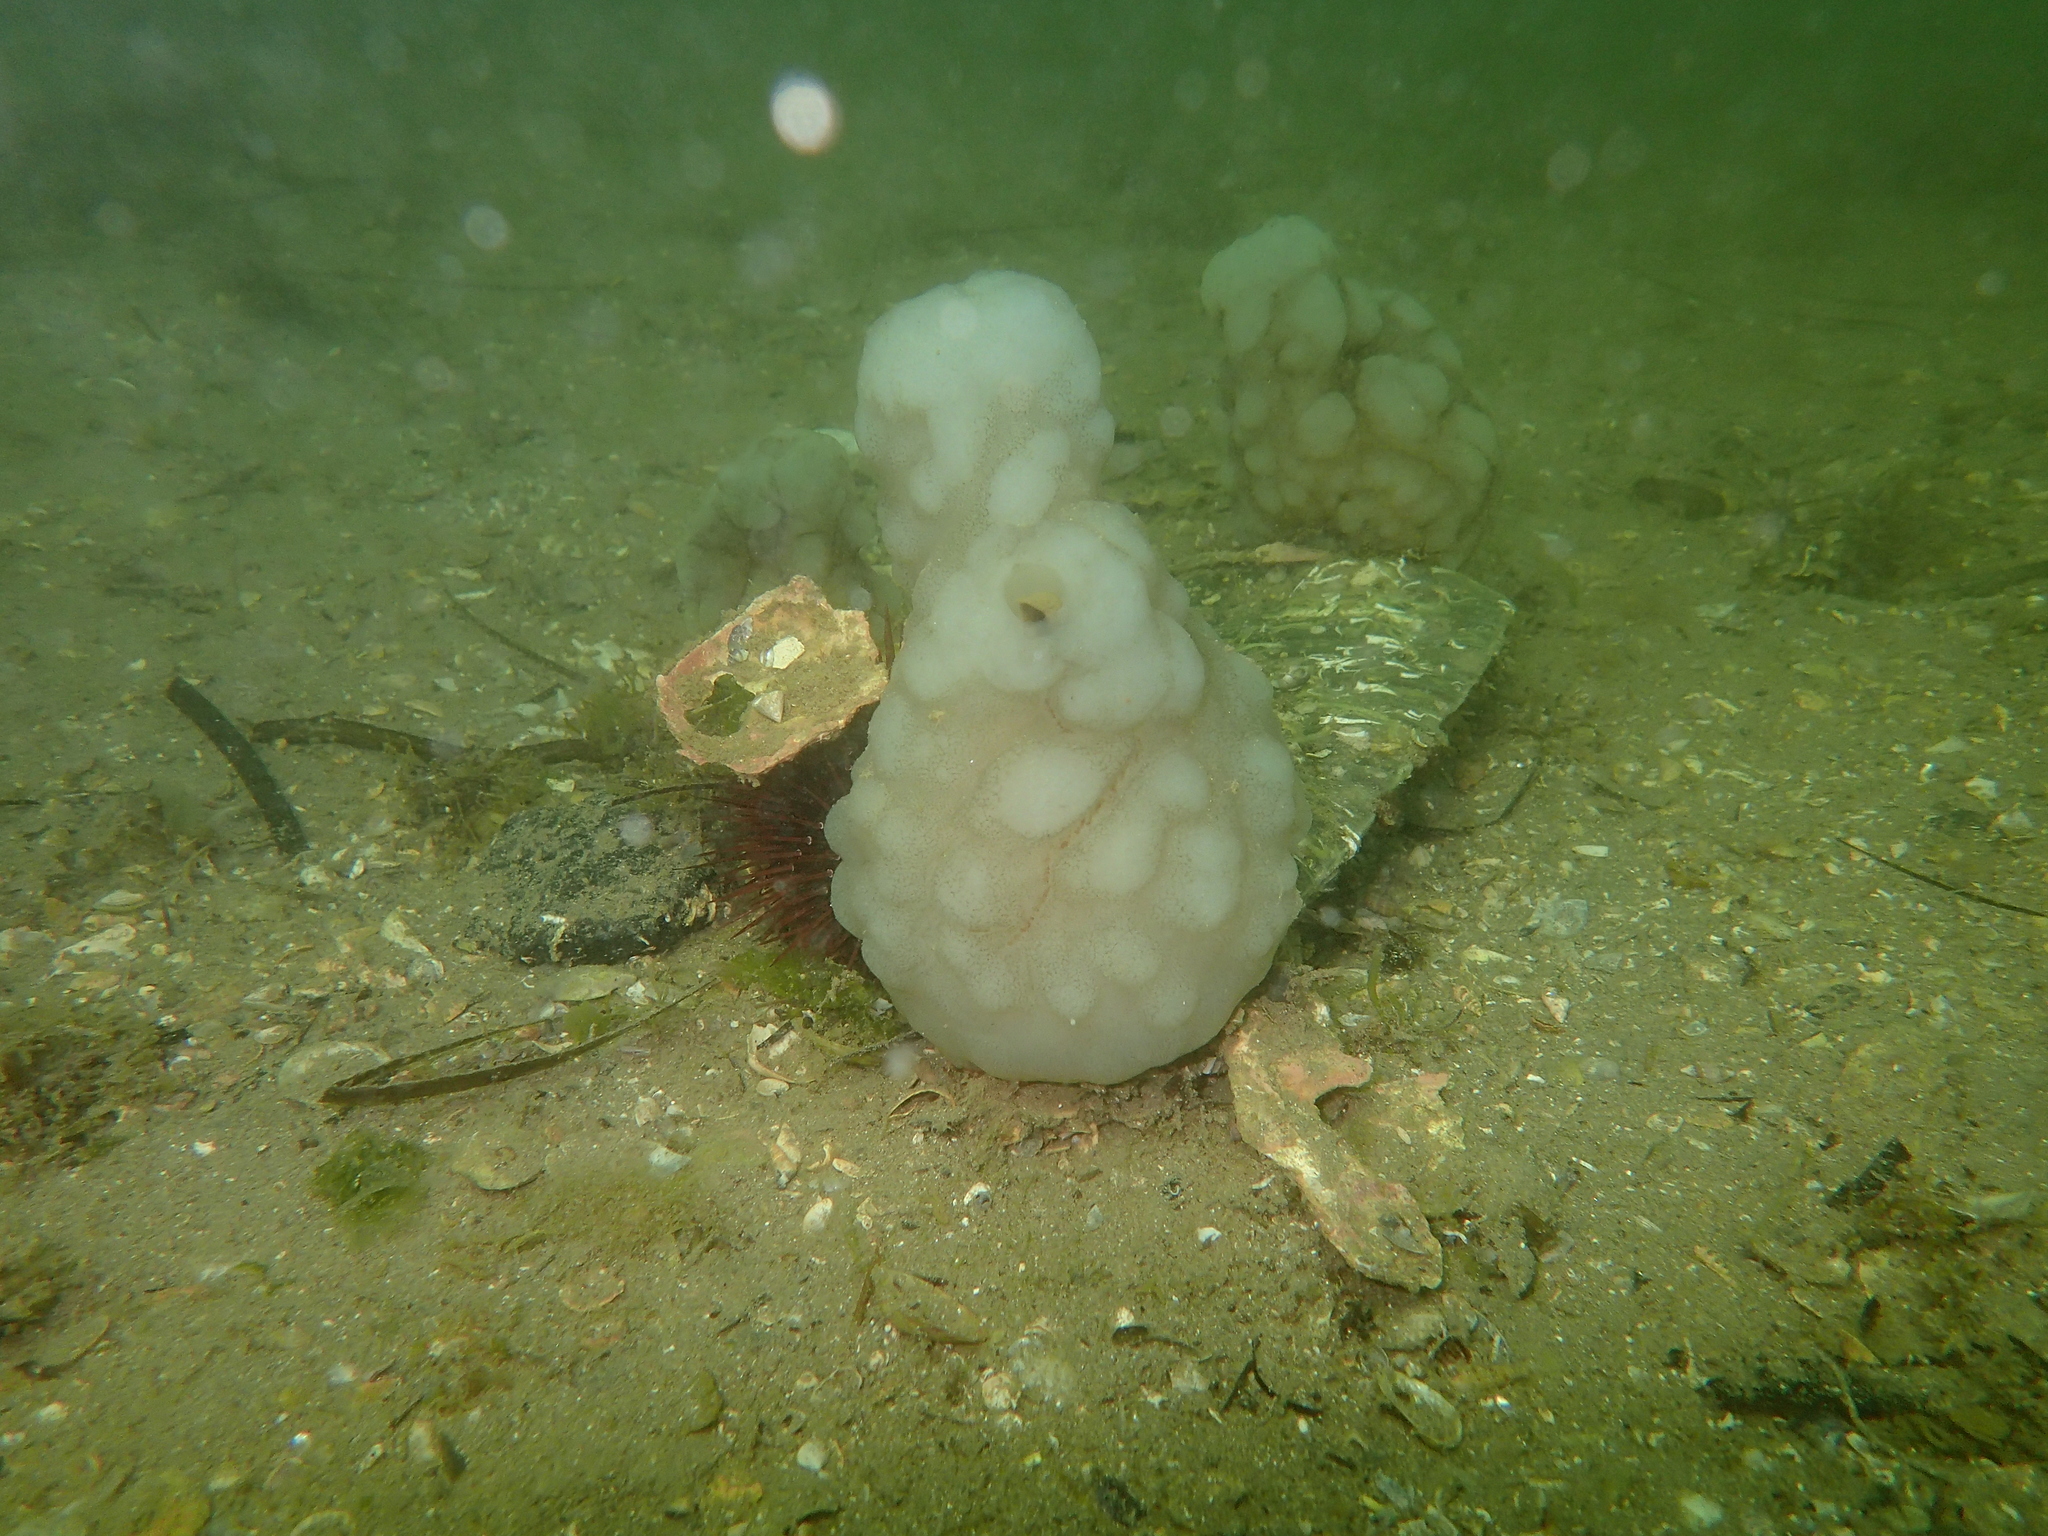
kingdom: Animalia
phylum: Chordata
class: Ascidiacea
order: Phlebobranchia
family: Ascidiidae
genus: Phallusia
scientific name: Phallusia mammillata
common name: Neptune's heart sea squirt
